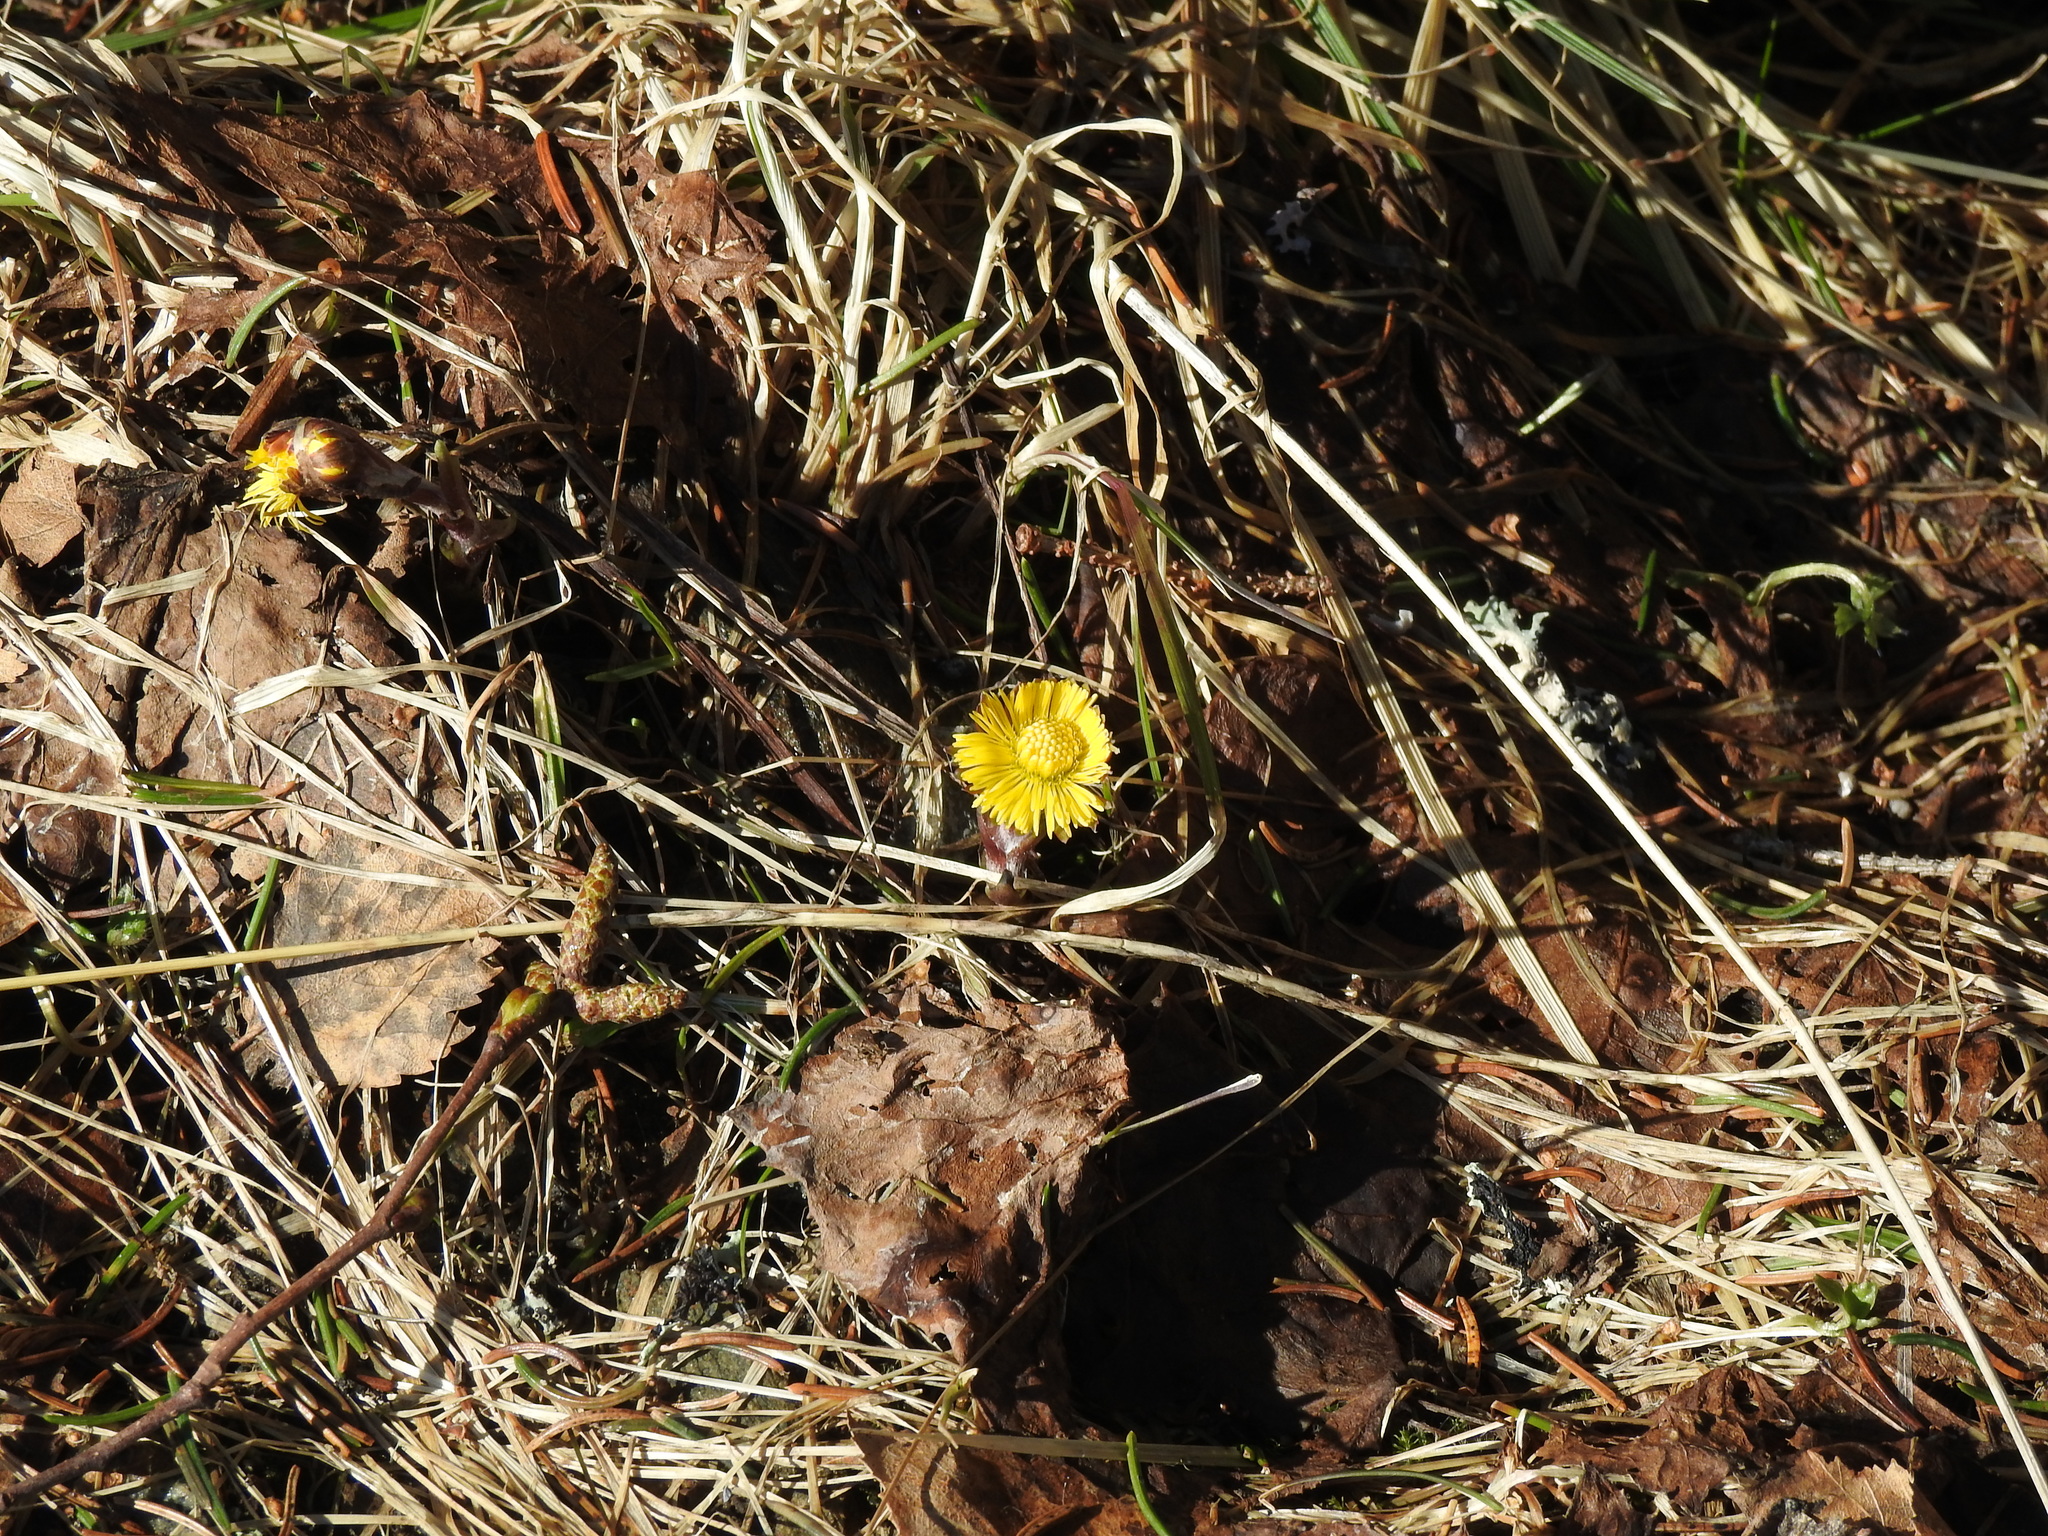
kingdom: Plantae
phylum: Tracheophyta
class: Magnoliopsida
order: Asterales
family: Asteraceae
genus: Tussilago
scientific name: Tussilago farfara
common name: Coltsfoot
